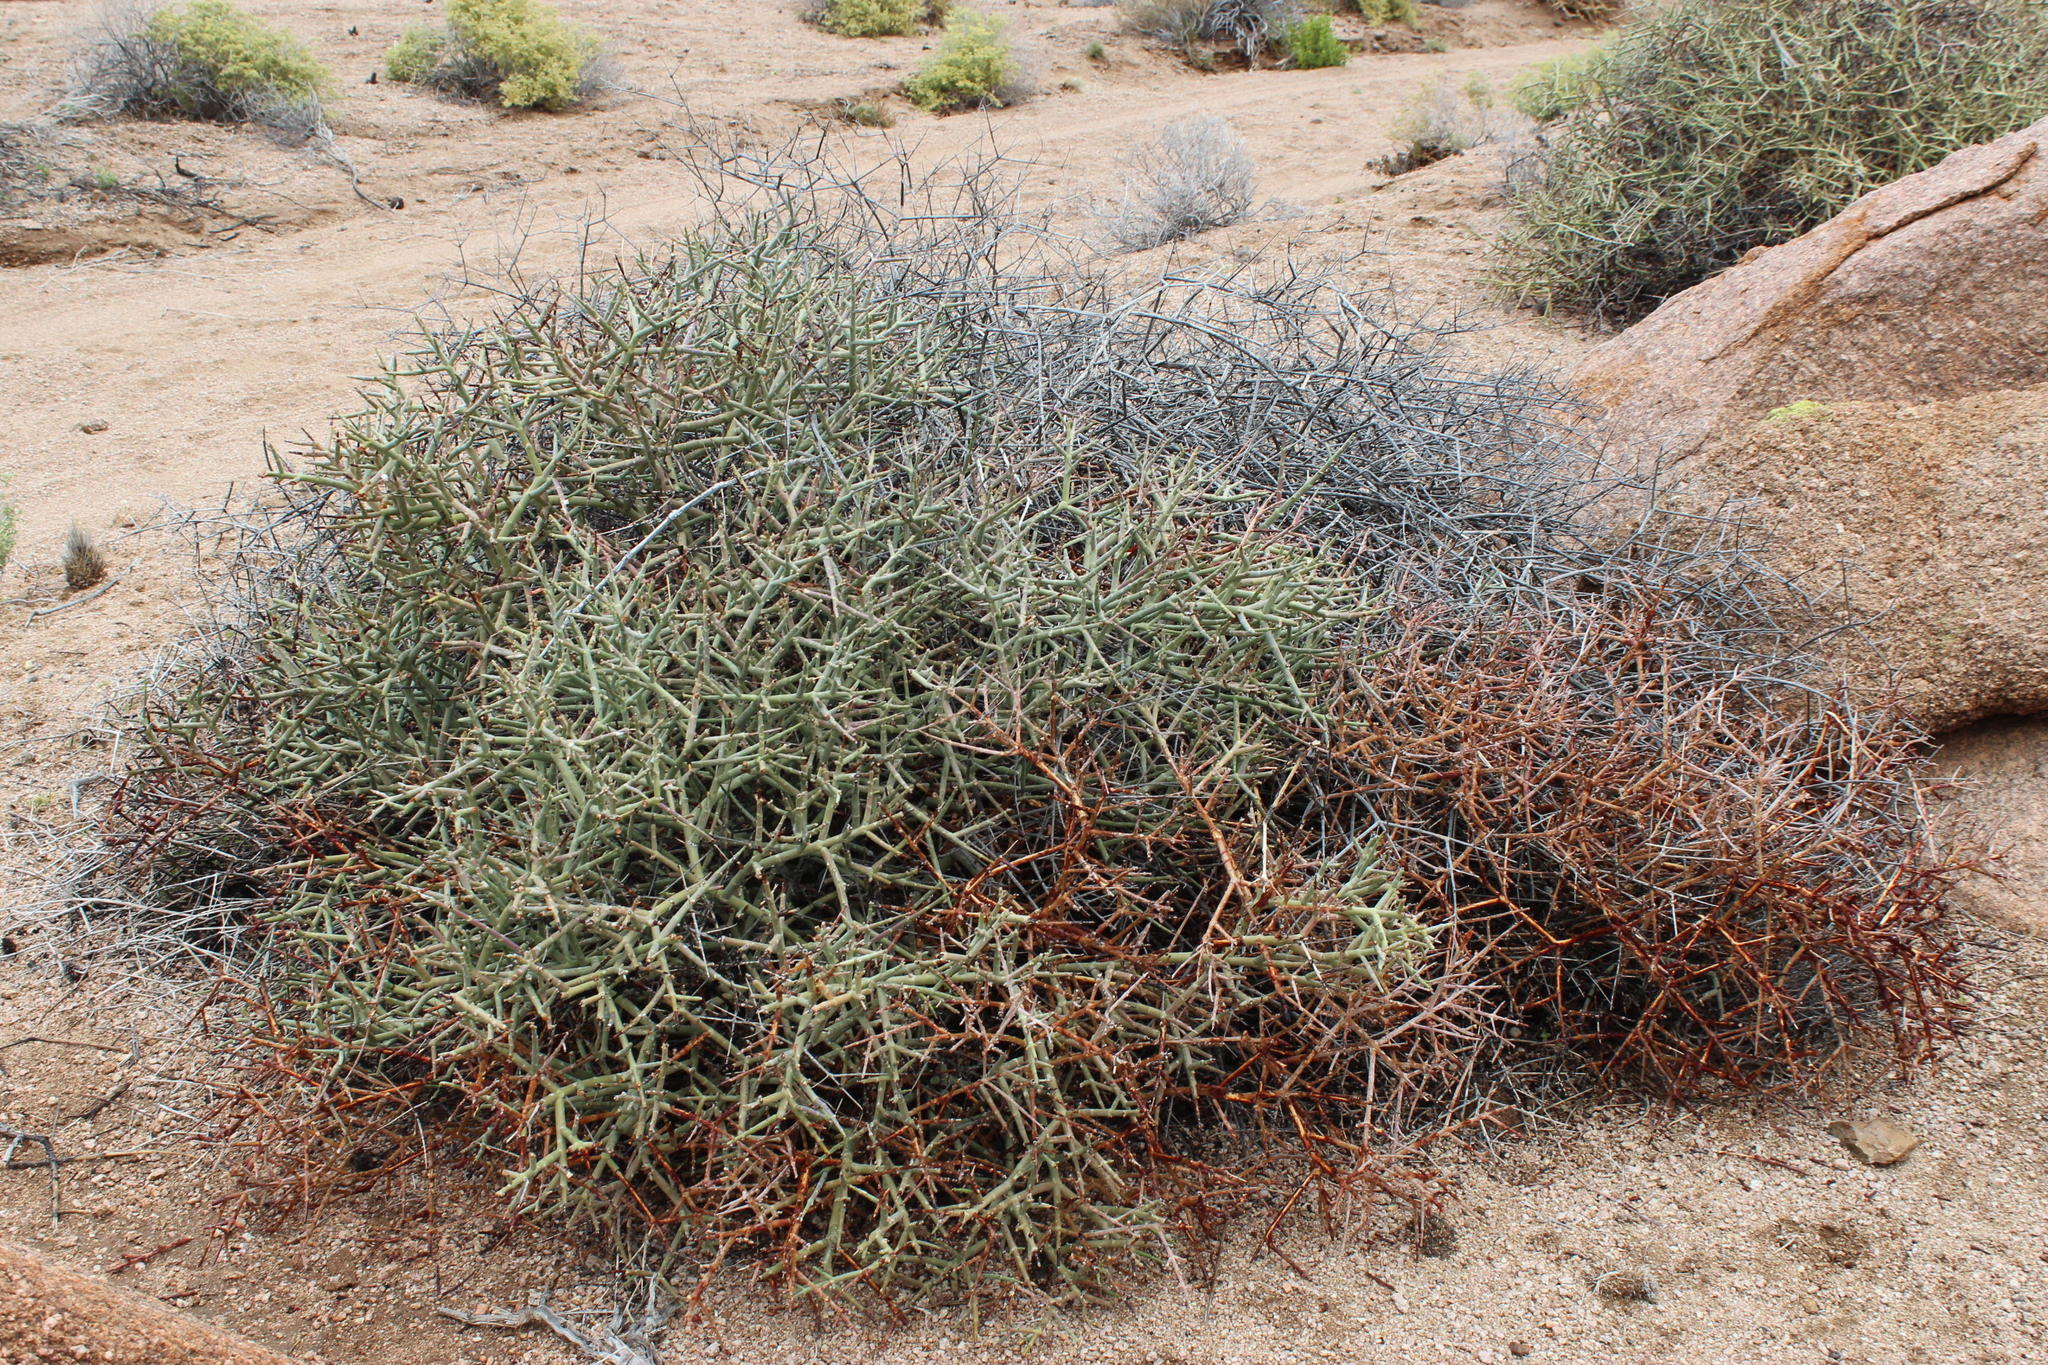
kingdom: Plantae
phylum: Tracheophyta
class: Magnoliopsida
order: Malpighiales
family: Euphorbiaceae
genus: Euphorbia
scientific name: Euphorbia lignosa
